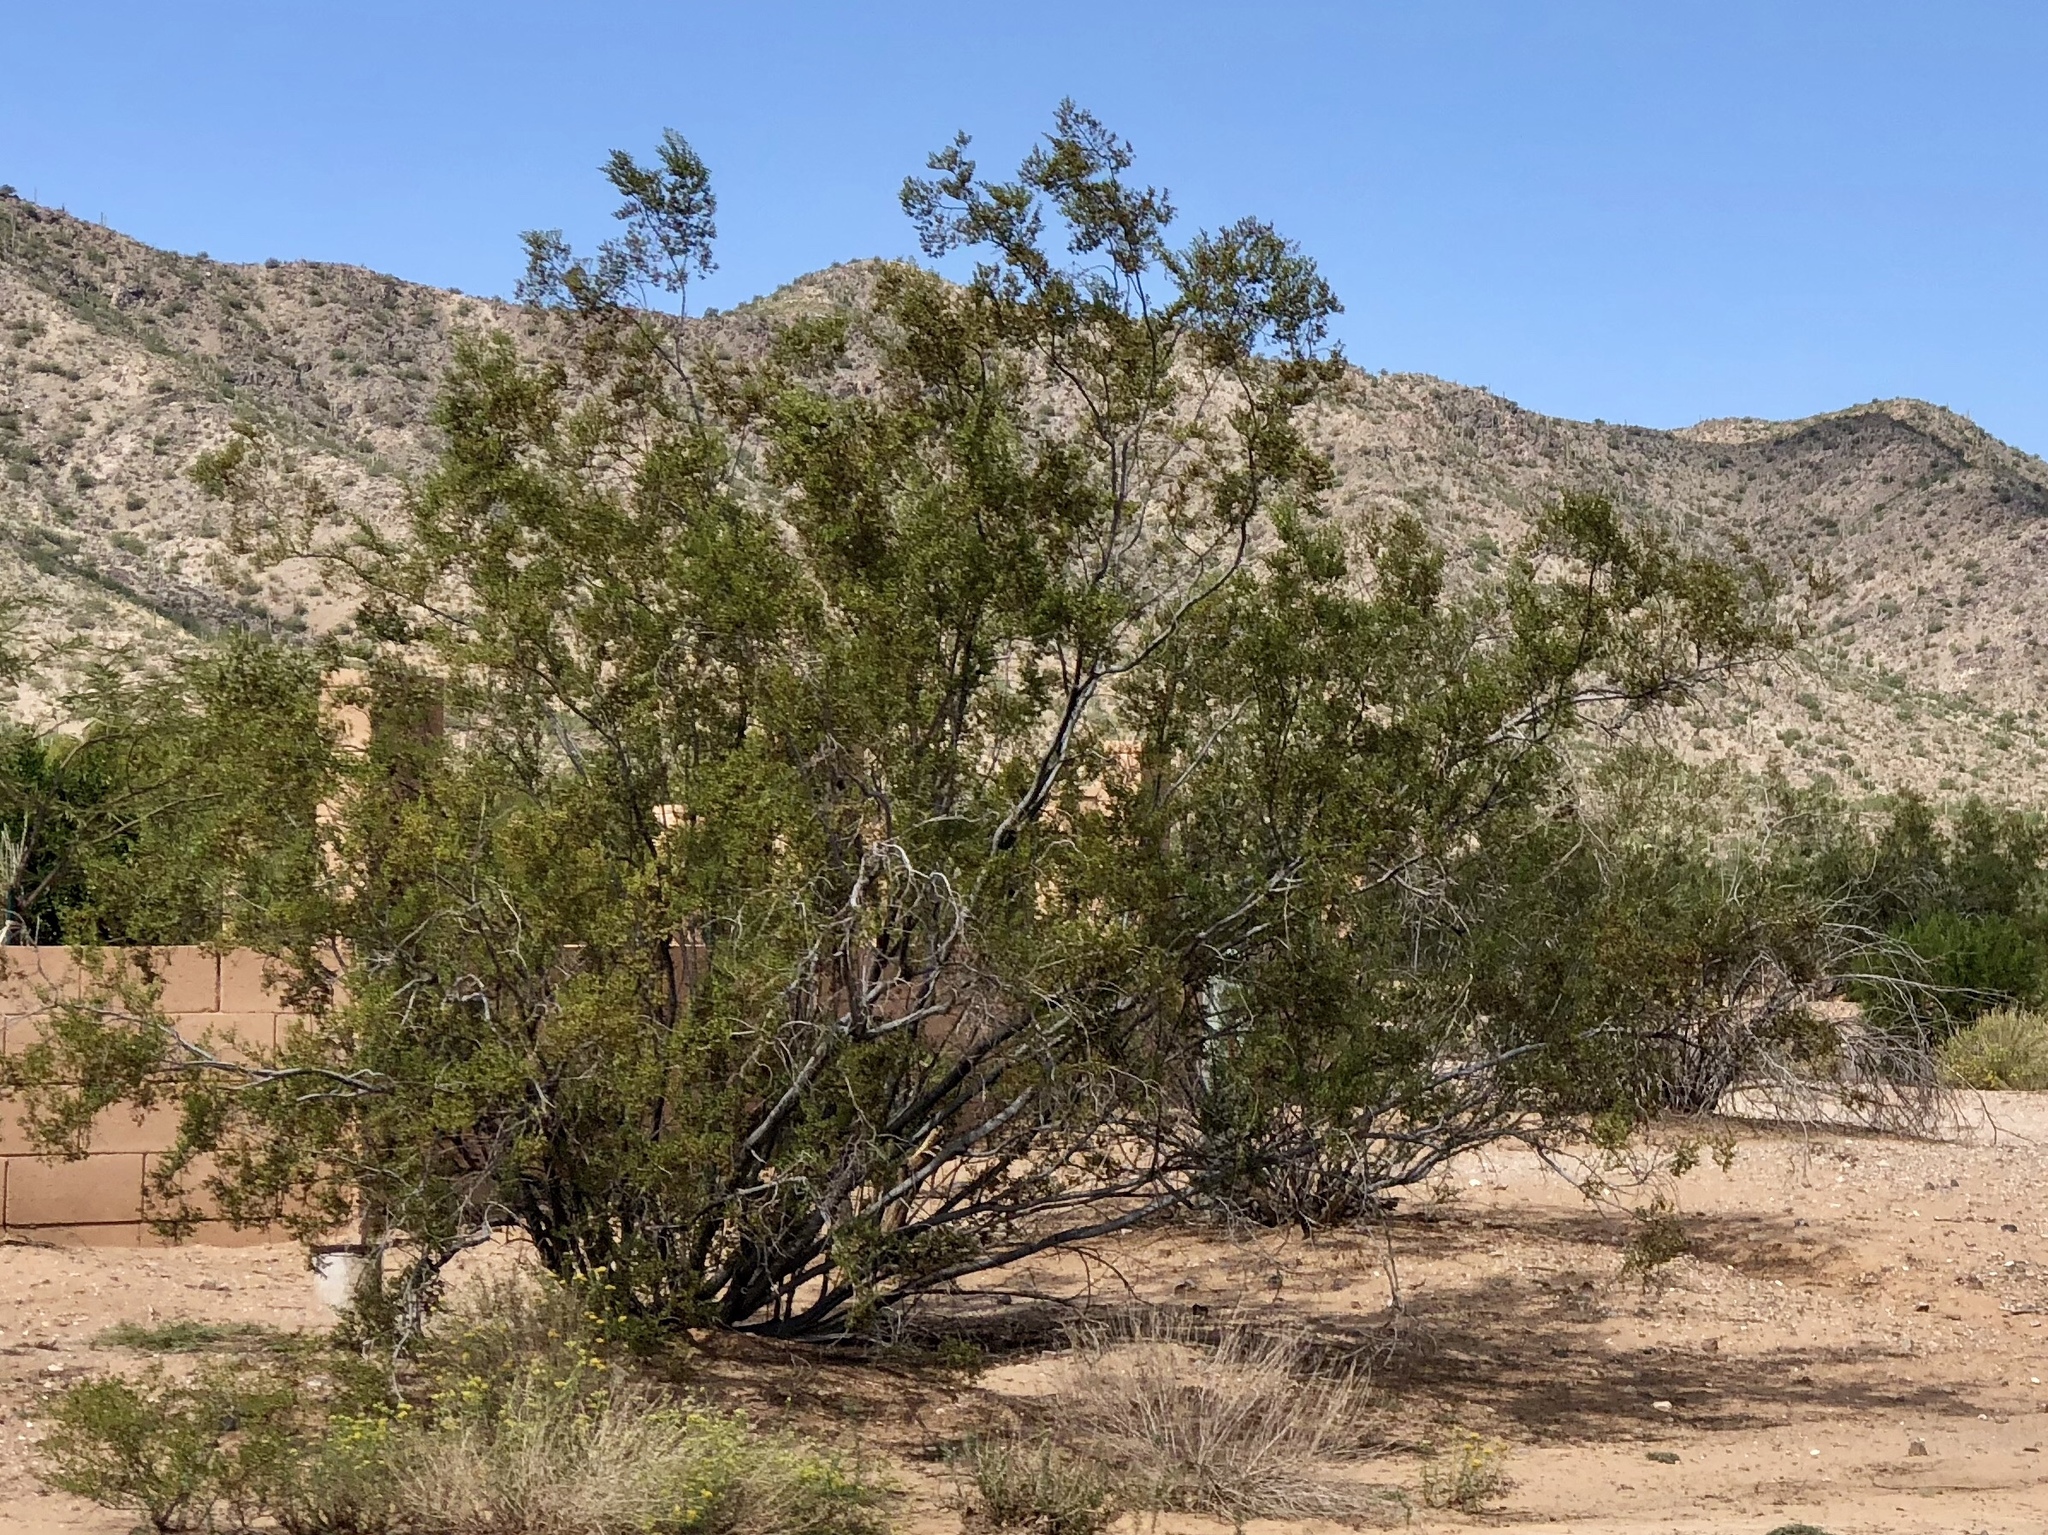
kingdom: Plantae
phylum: Tracheophyta
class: Magnoliopsida
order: Zygophyllales
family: Zygophyllaceae
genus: Larrea
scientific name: Larrea tridentata
